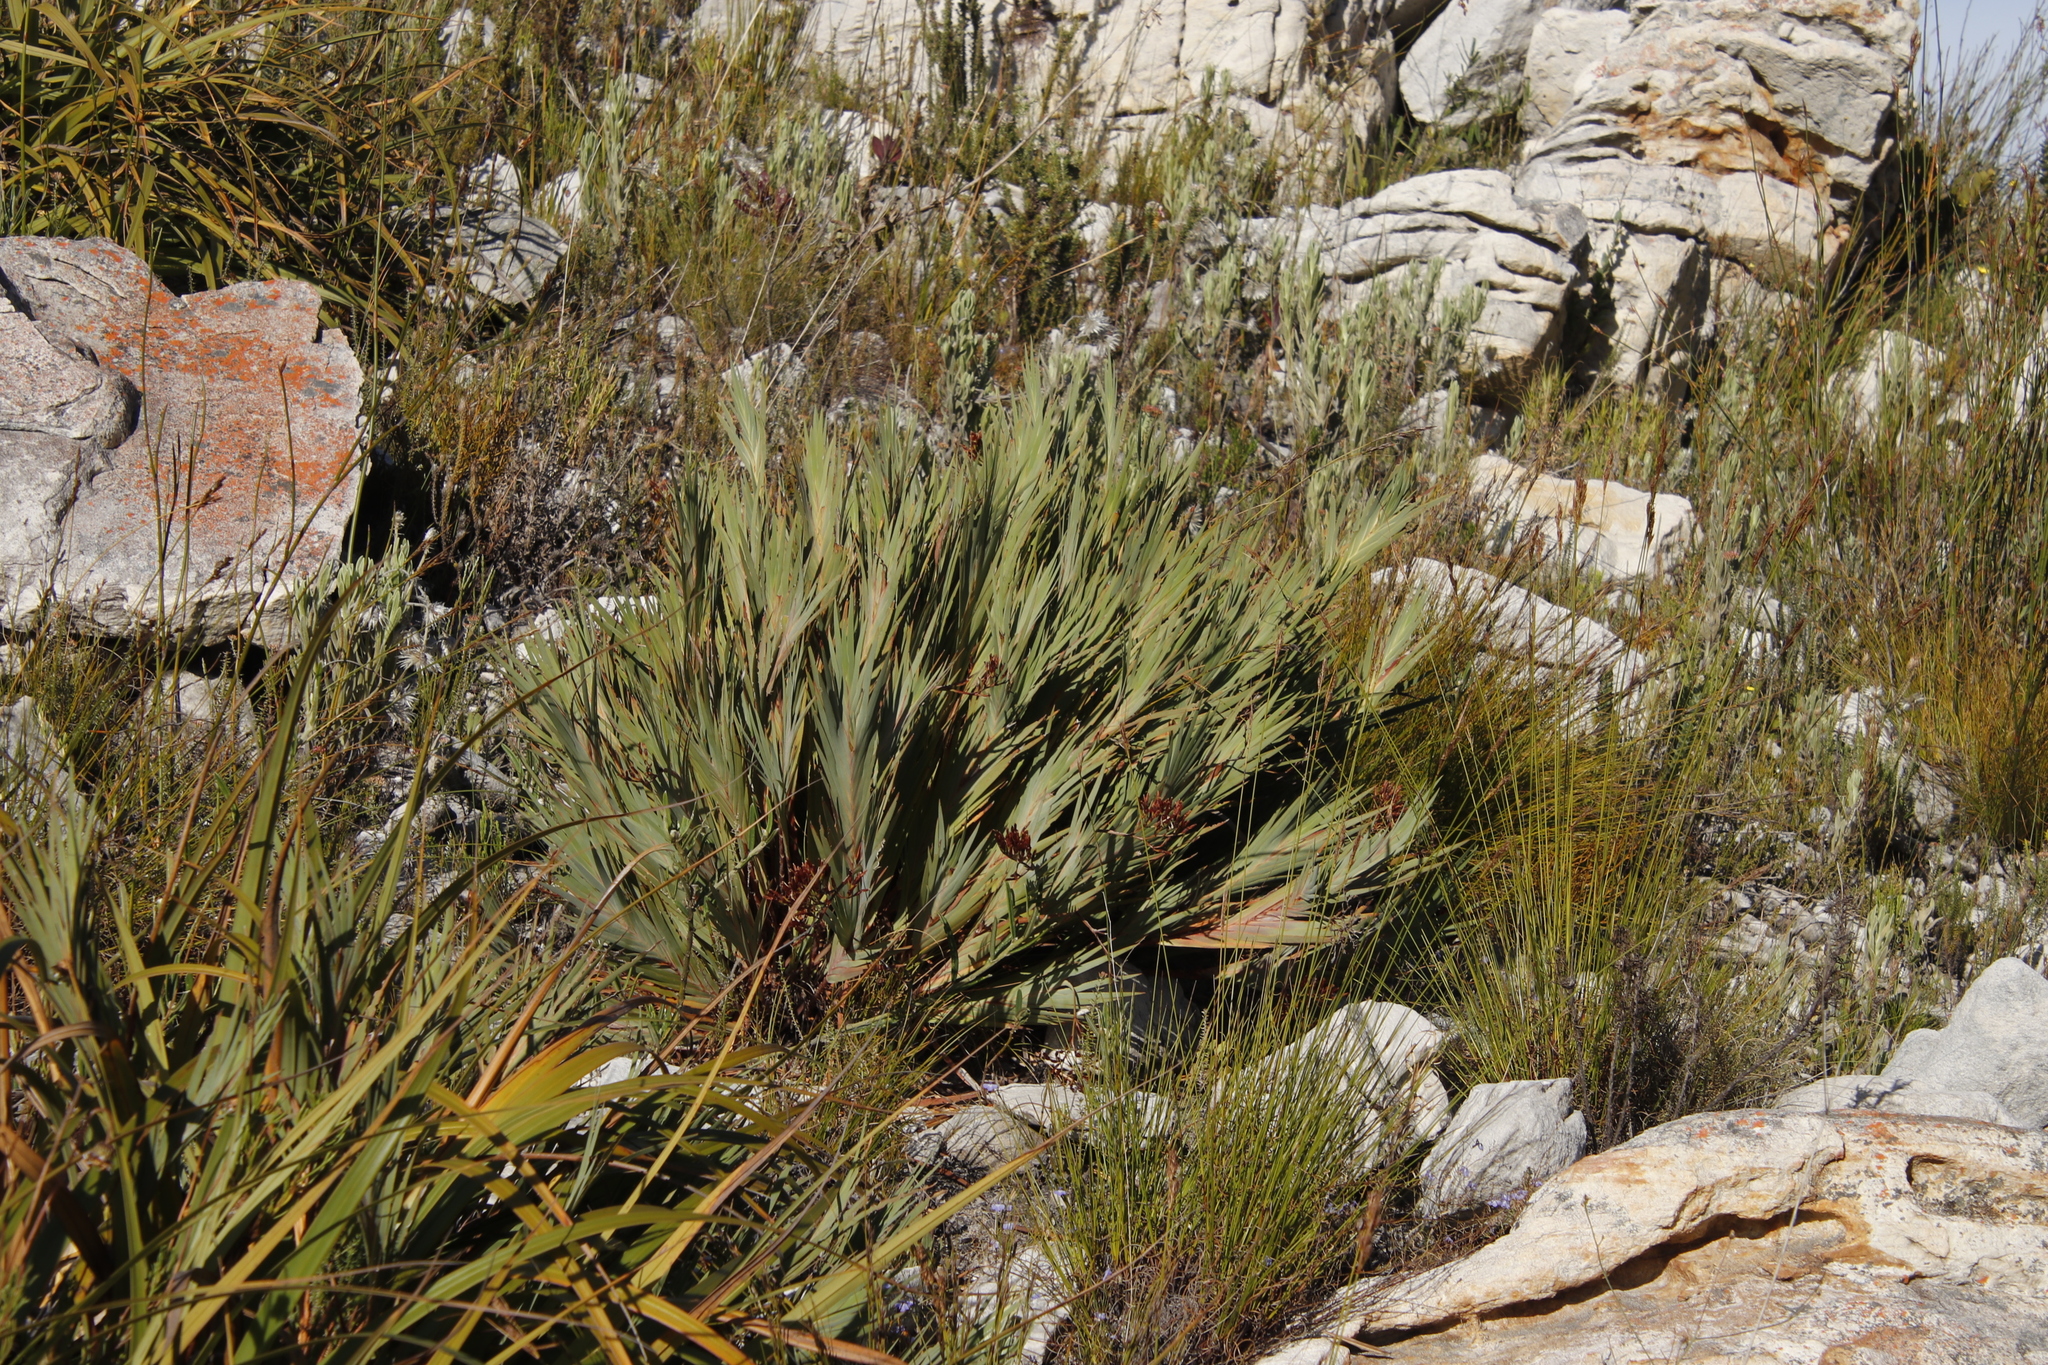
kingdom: Plantae
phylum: Tracheophyta
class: Liliopsida
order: Asparagales
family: Iridaceae
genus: Nivenia
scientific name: Nivenia stokoei
